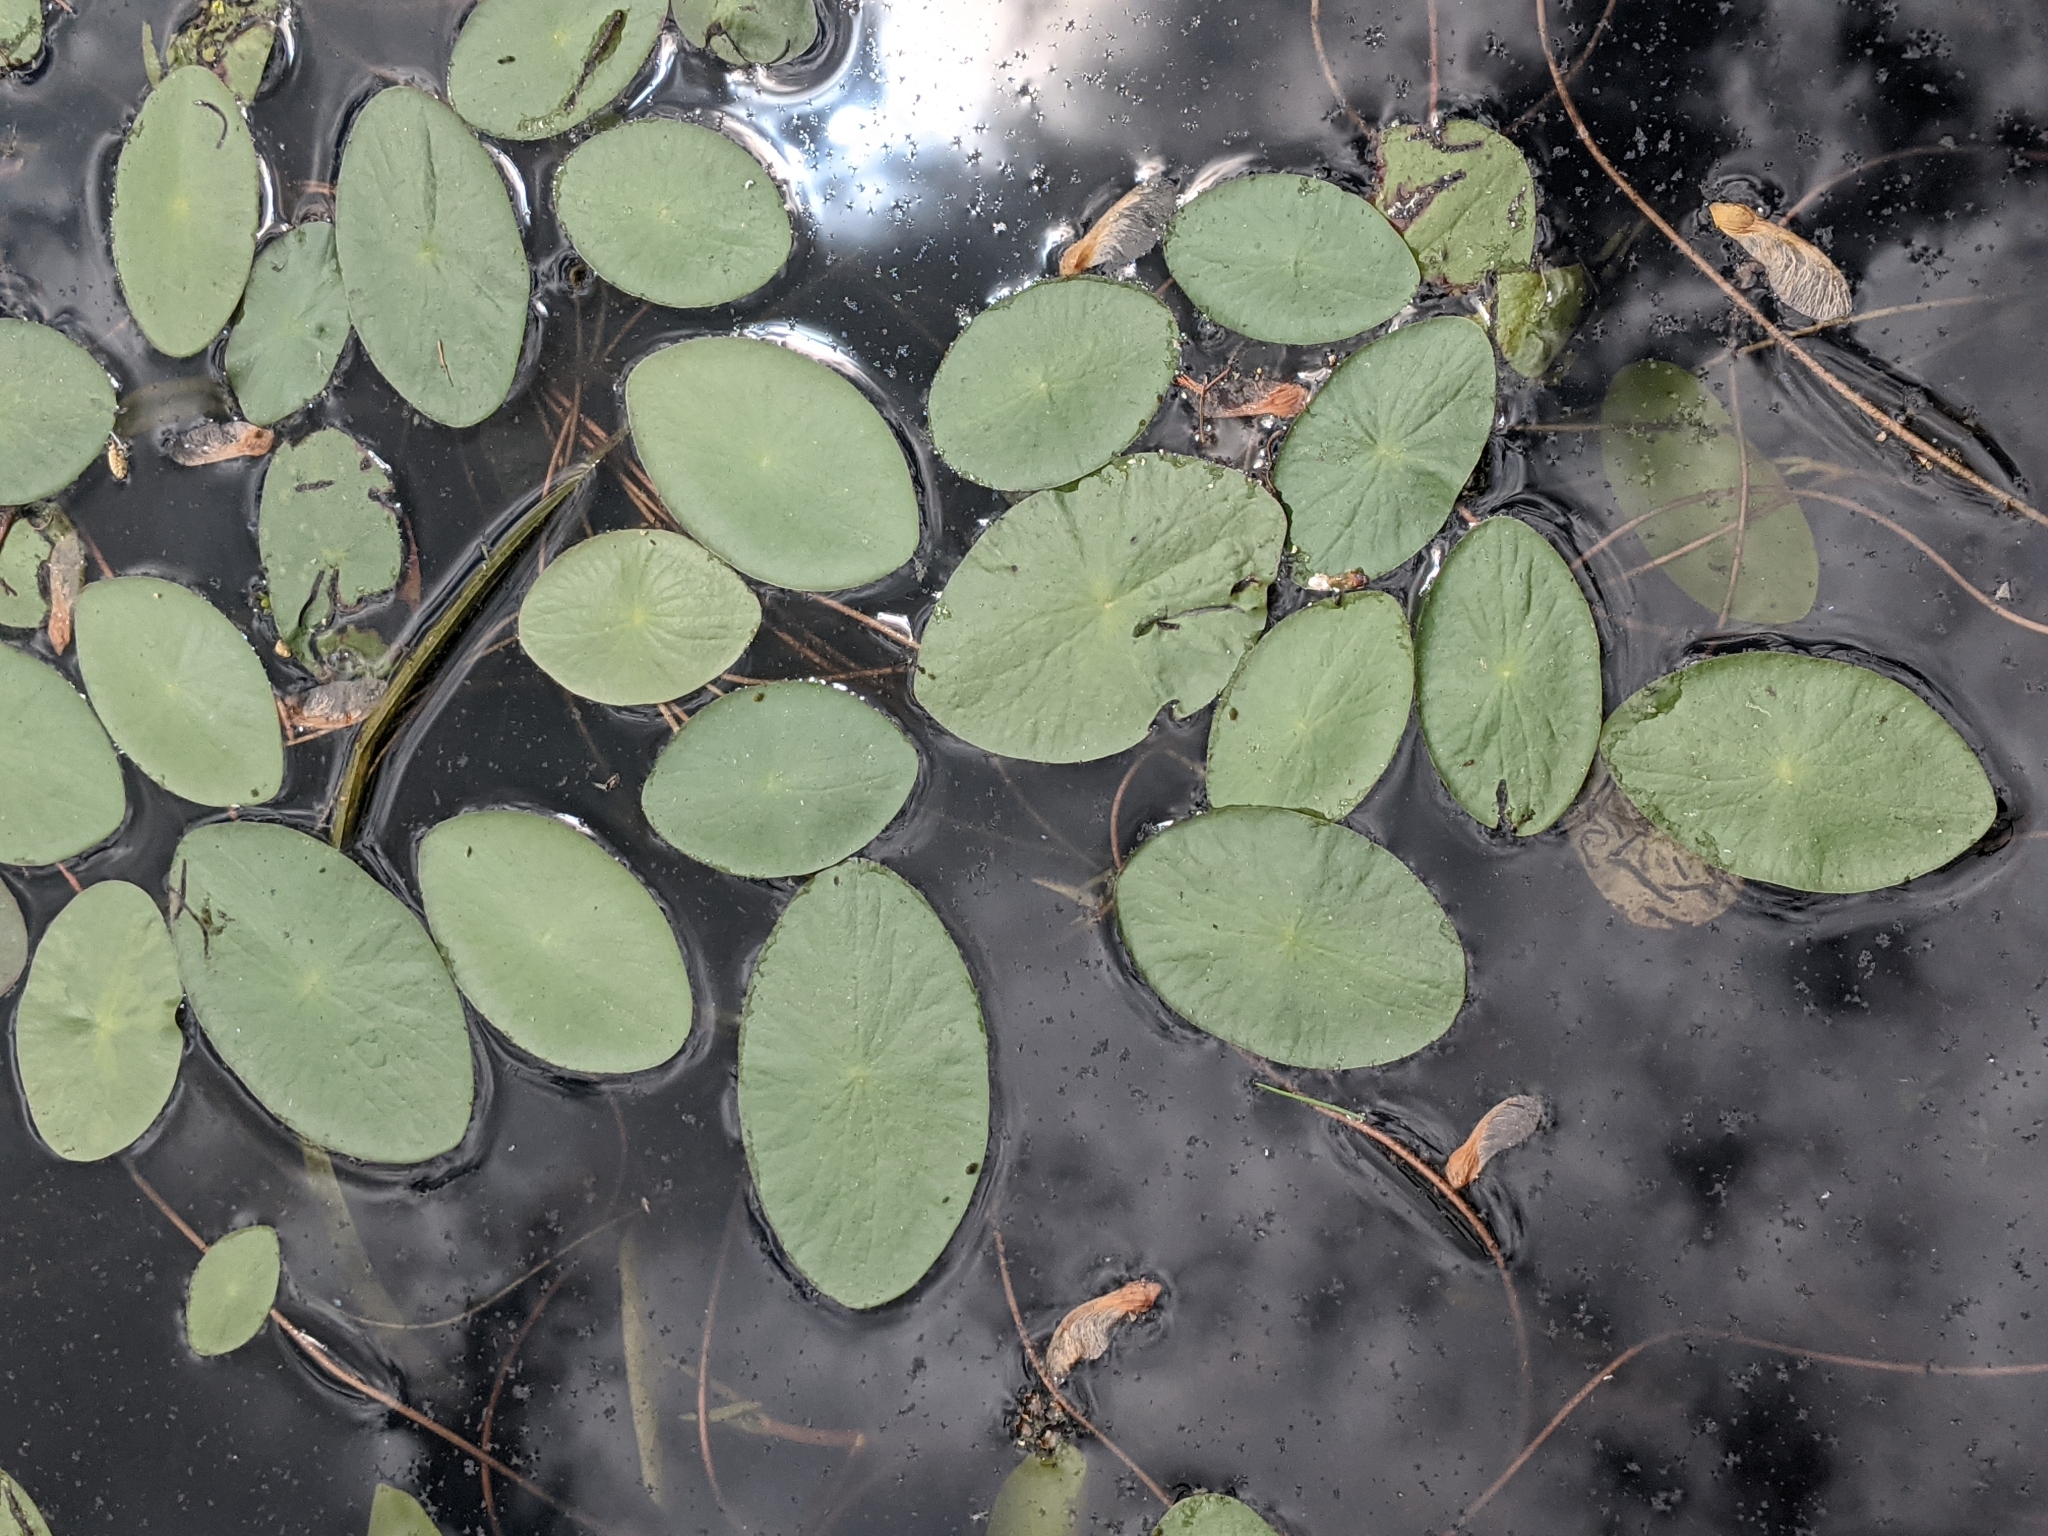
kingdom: Plantae
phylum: Tracheophyta
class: Magnoliopsida
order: Nymphaeales
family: Cabombaceae
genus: Brasenia
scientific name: Brasenia schreberi
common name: Water-shield
